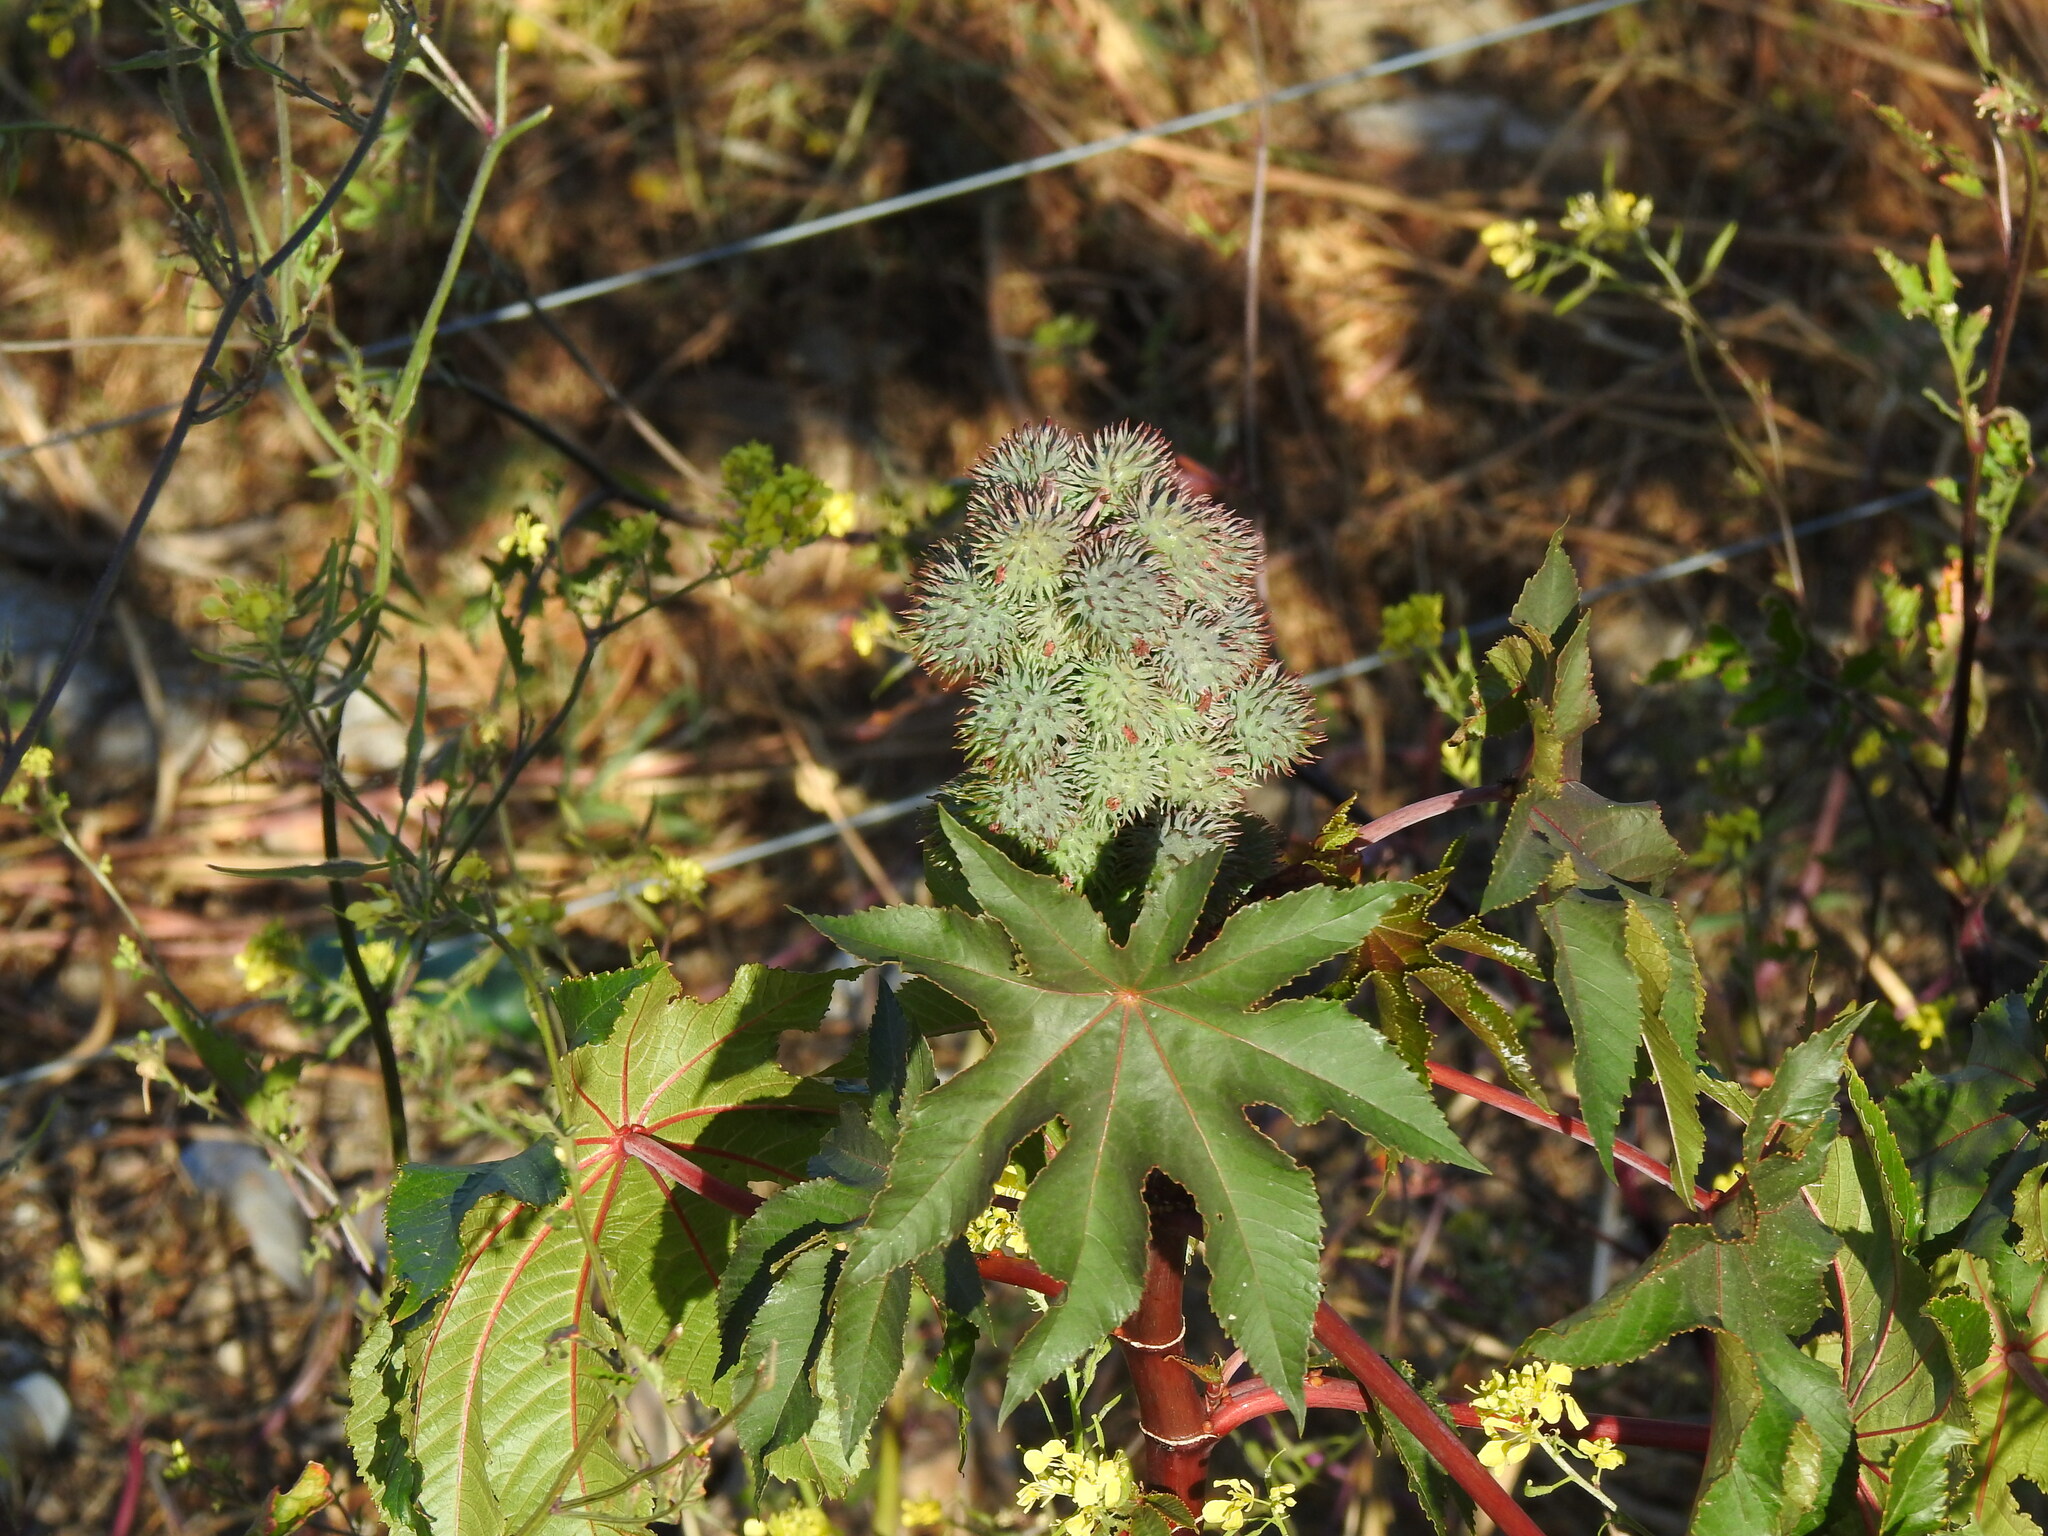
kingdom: Plantae
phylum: Tracheophyta
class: Magnoliopsida
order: Malpighiales
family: Euphorbiaceae
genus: Ricinus
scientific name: Ricinus communis
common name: Castor-oil-plant
